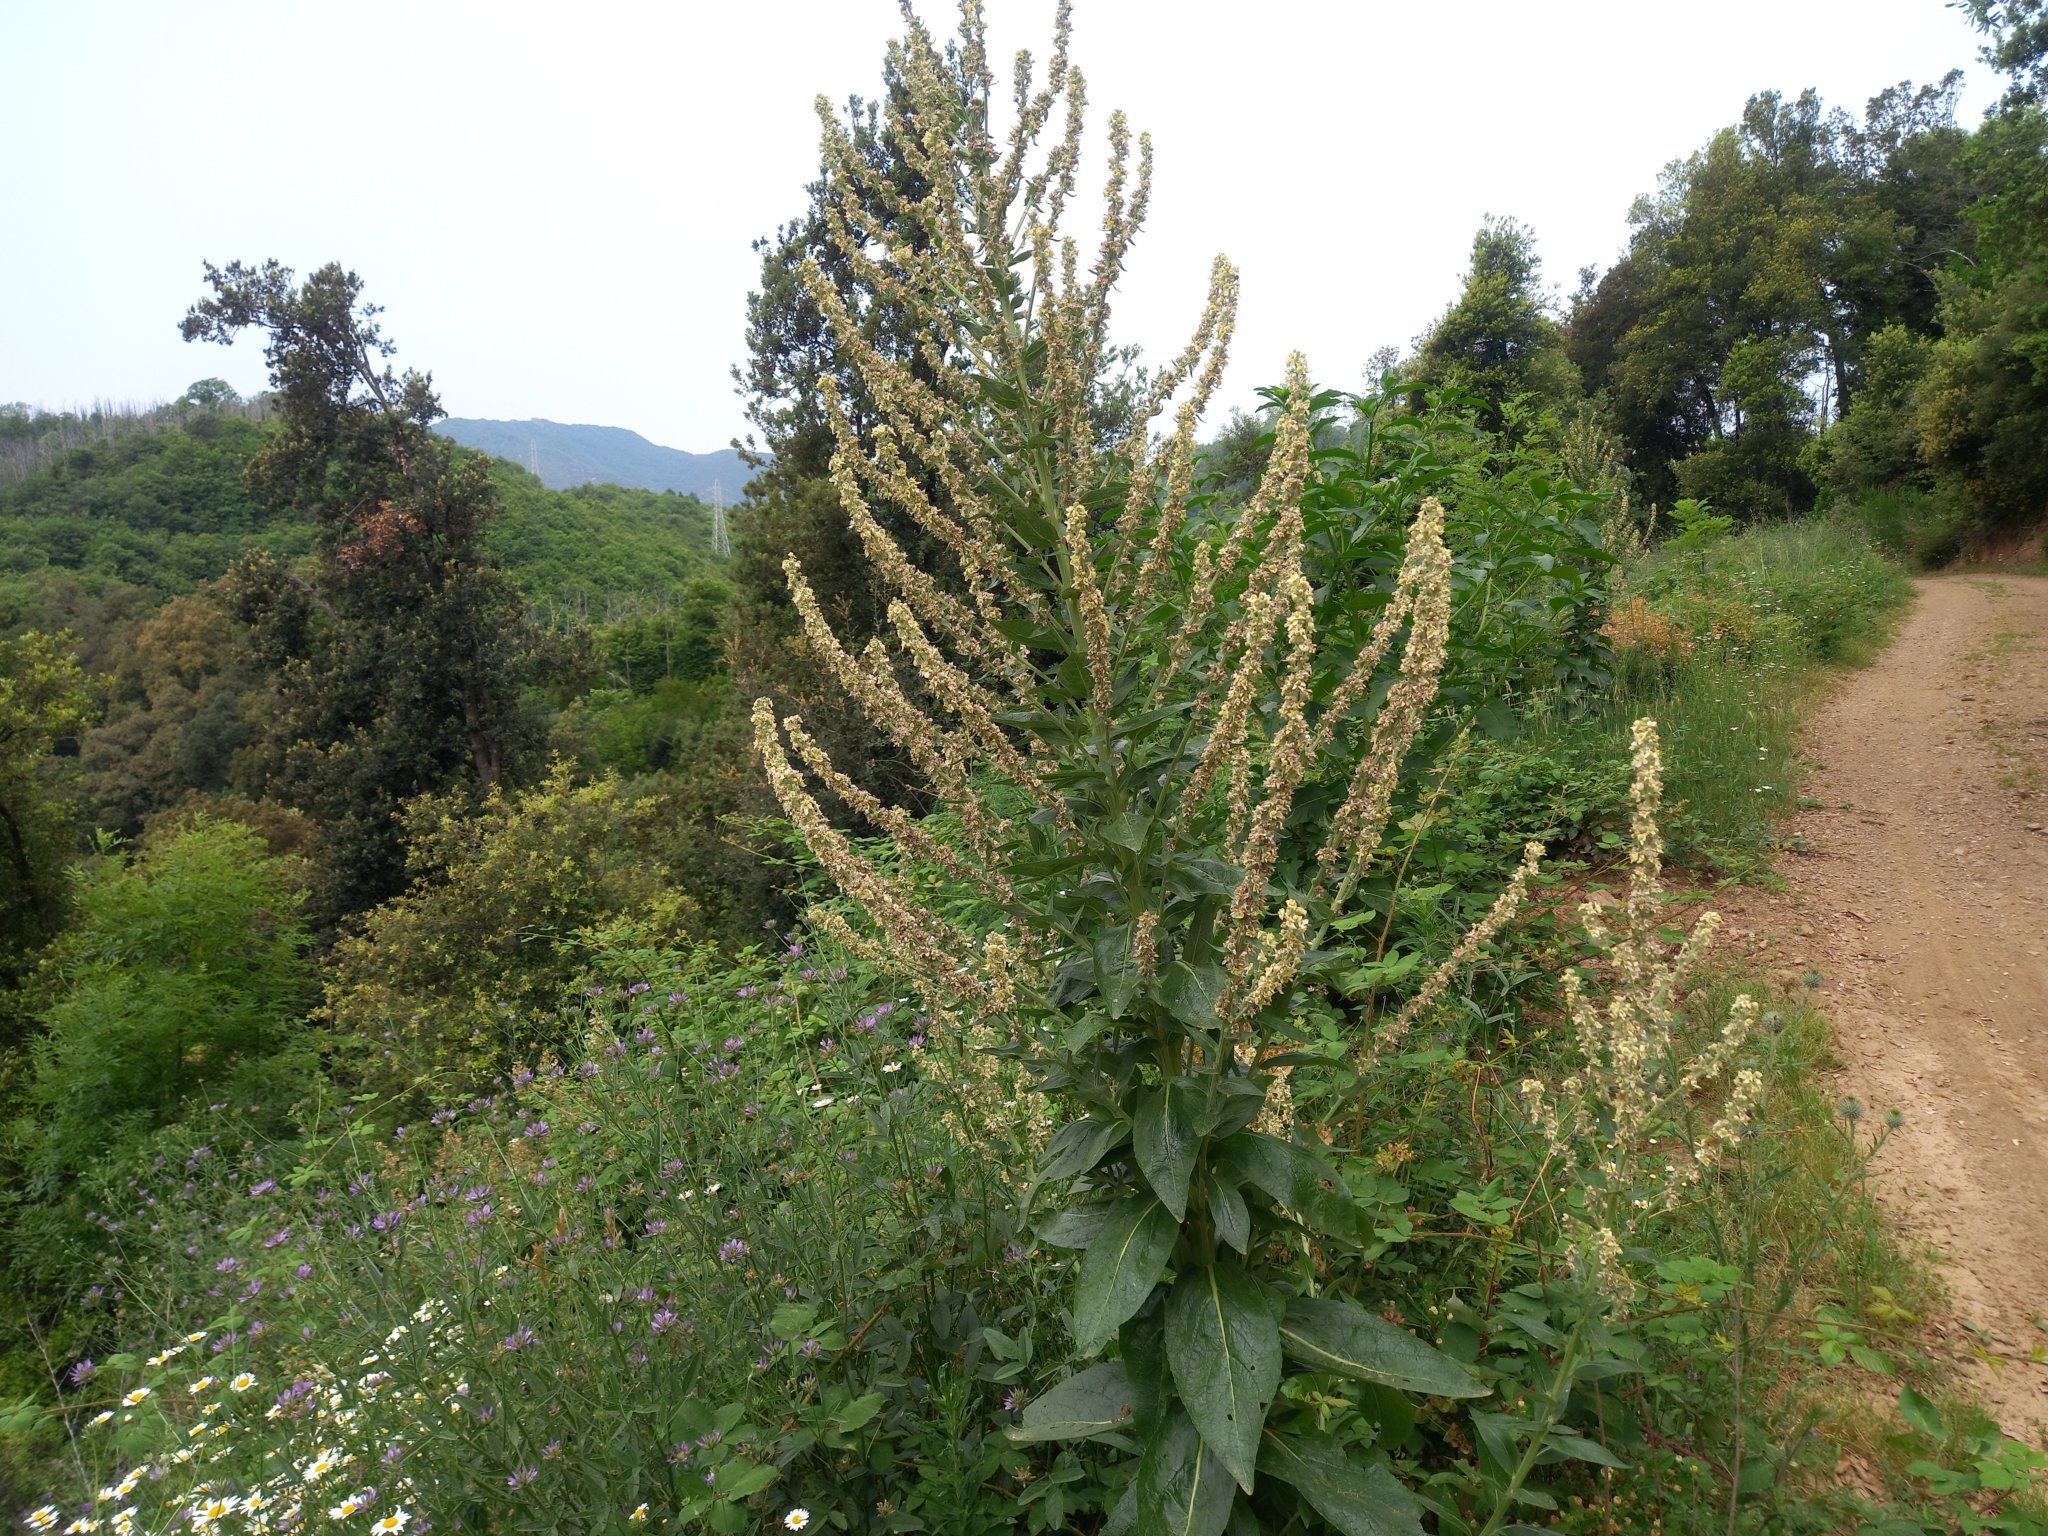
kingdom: Plantae
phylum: Tracheophyta
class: Magnoliopsida
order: Lamiales
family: Scrophulariaceae
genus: Verbascum
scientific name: Verbascum lychnitis
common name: White mullein
